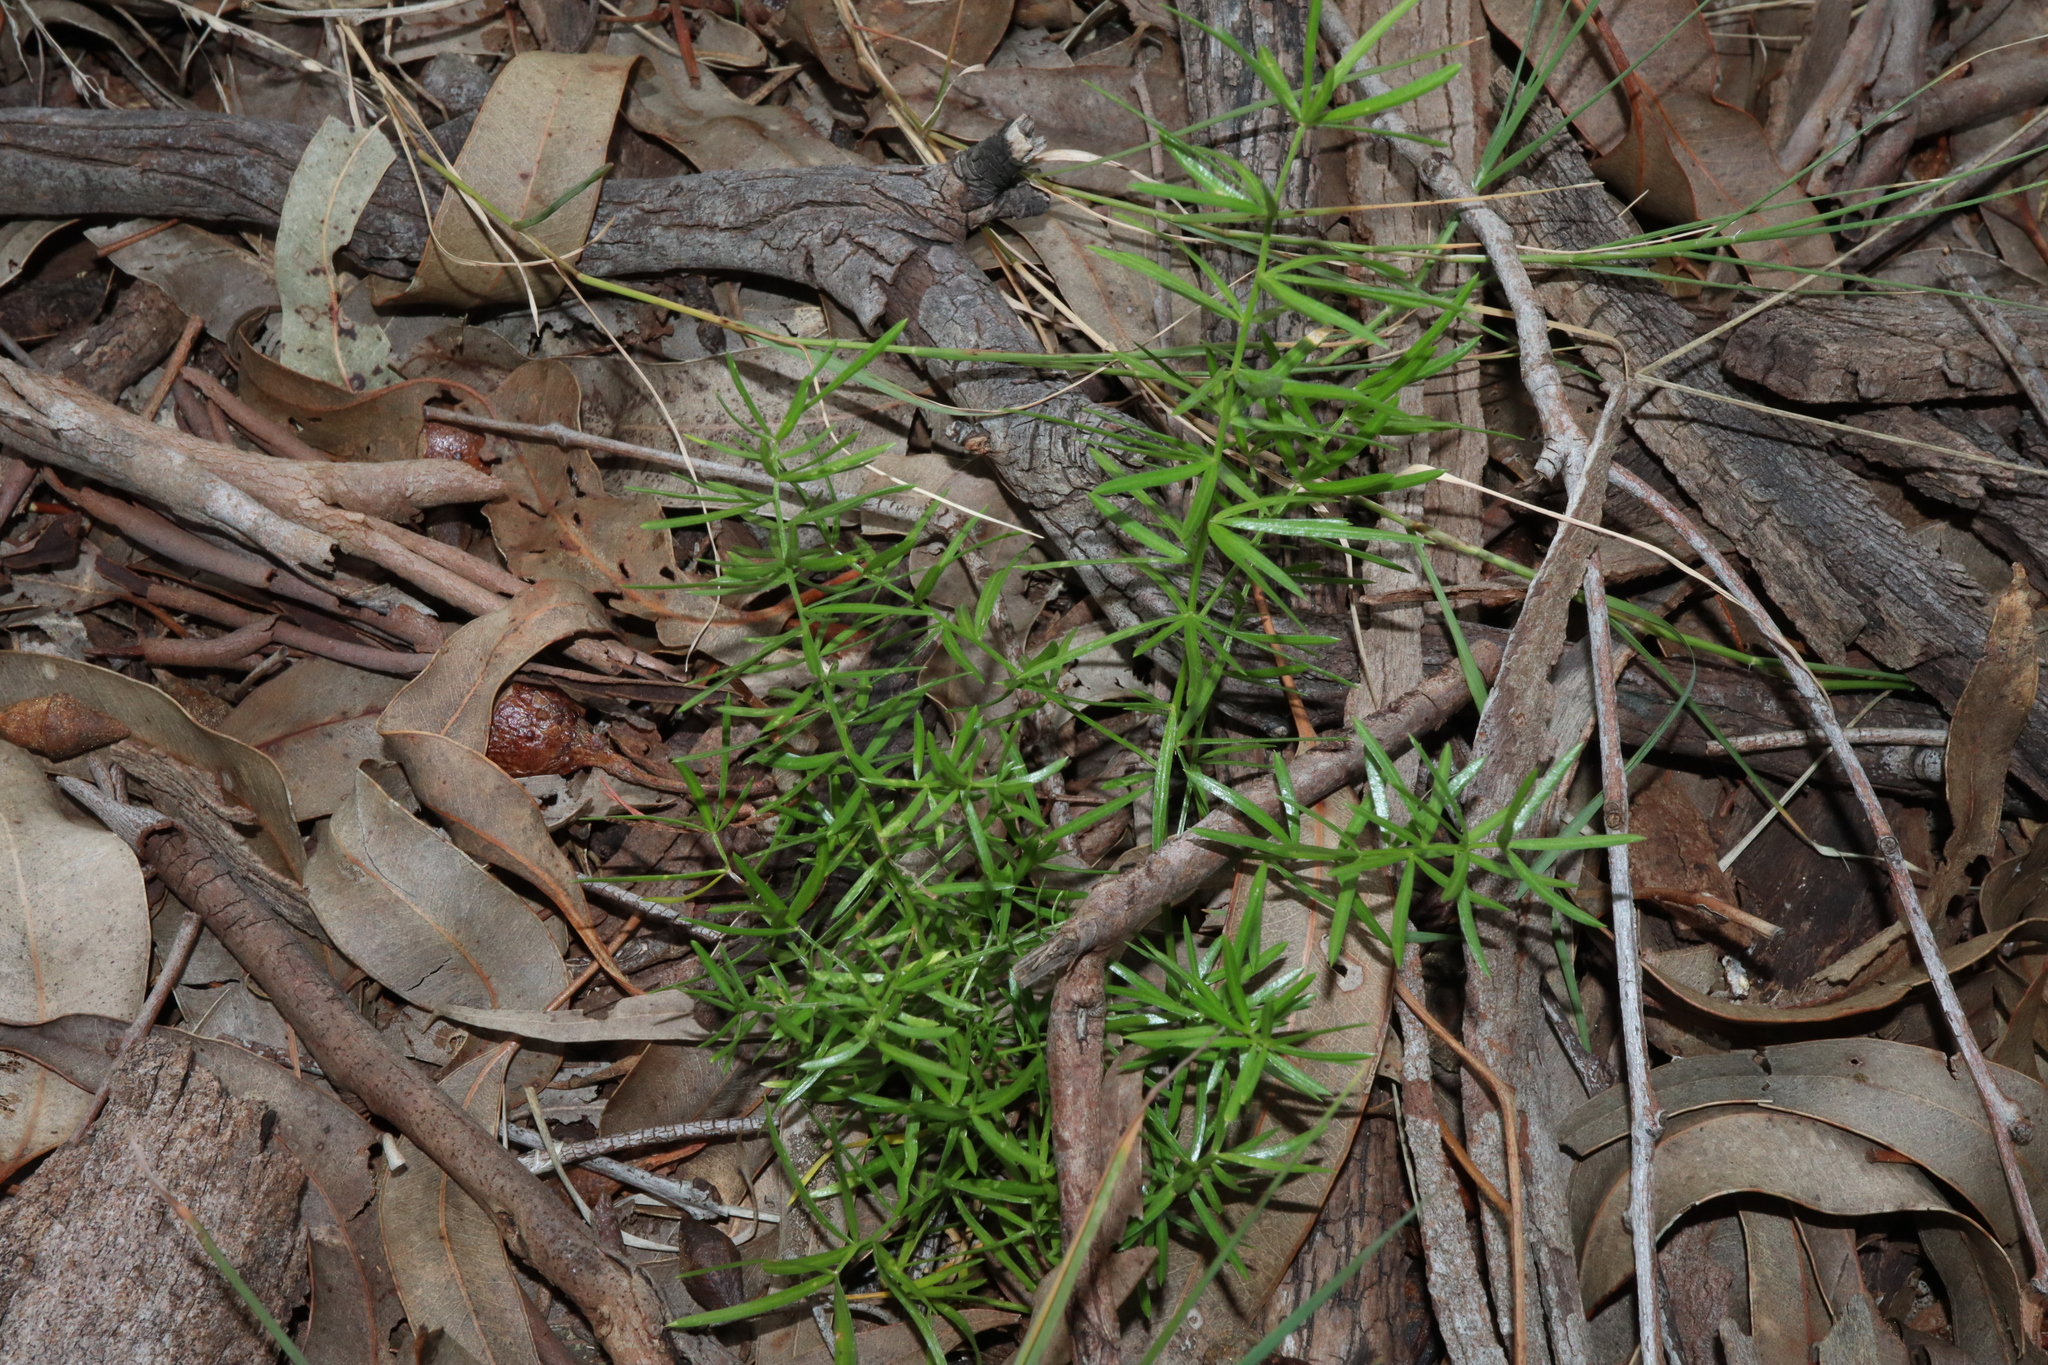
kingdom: Plantae
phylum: Tracheophyta
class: Liliopsida
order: Asparagales
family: Asparagaceae
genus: Asparagus
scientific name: Asparagus aethiopicus
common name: Sprenger's asparagus fern
